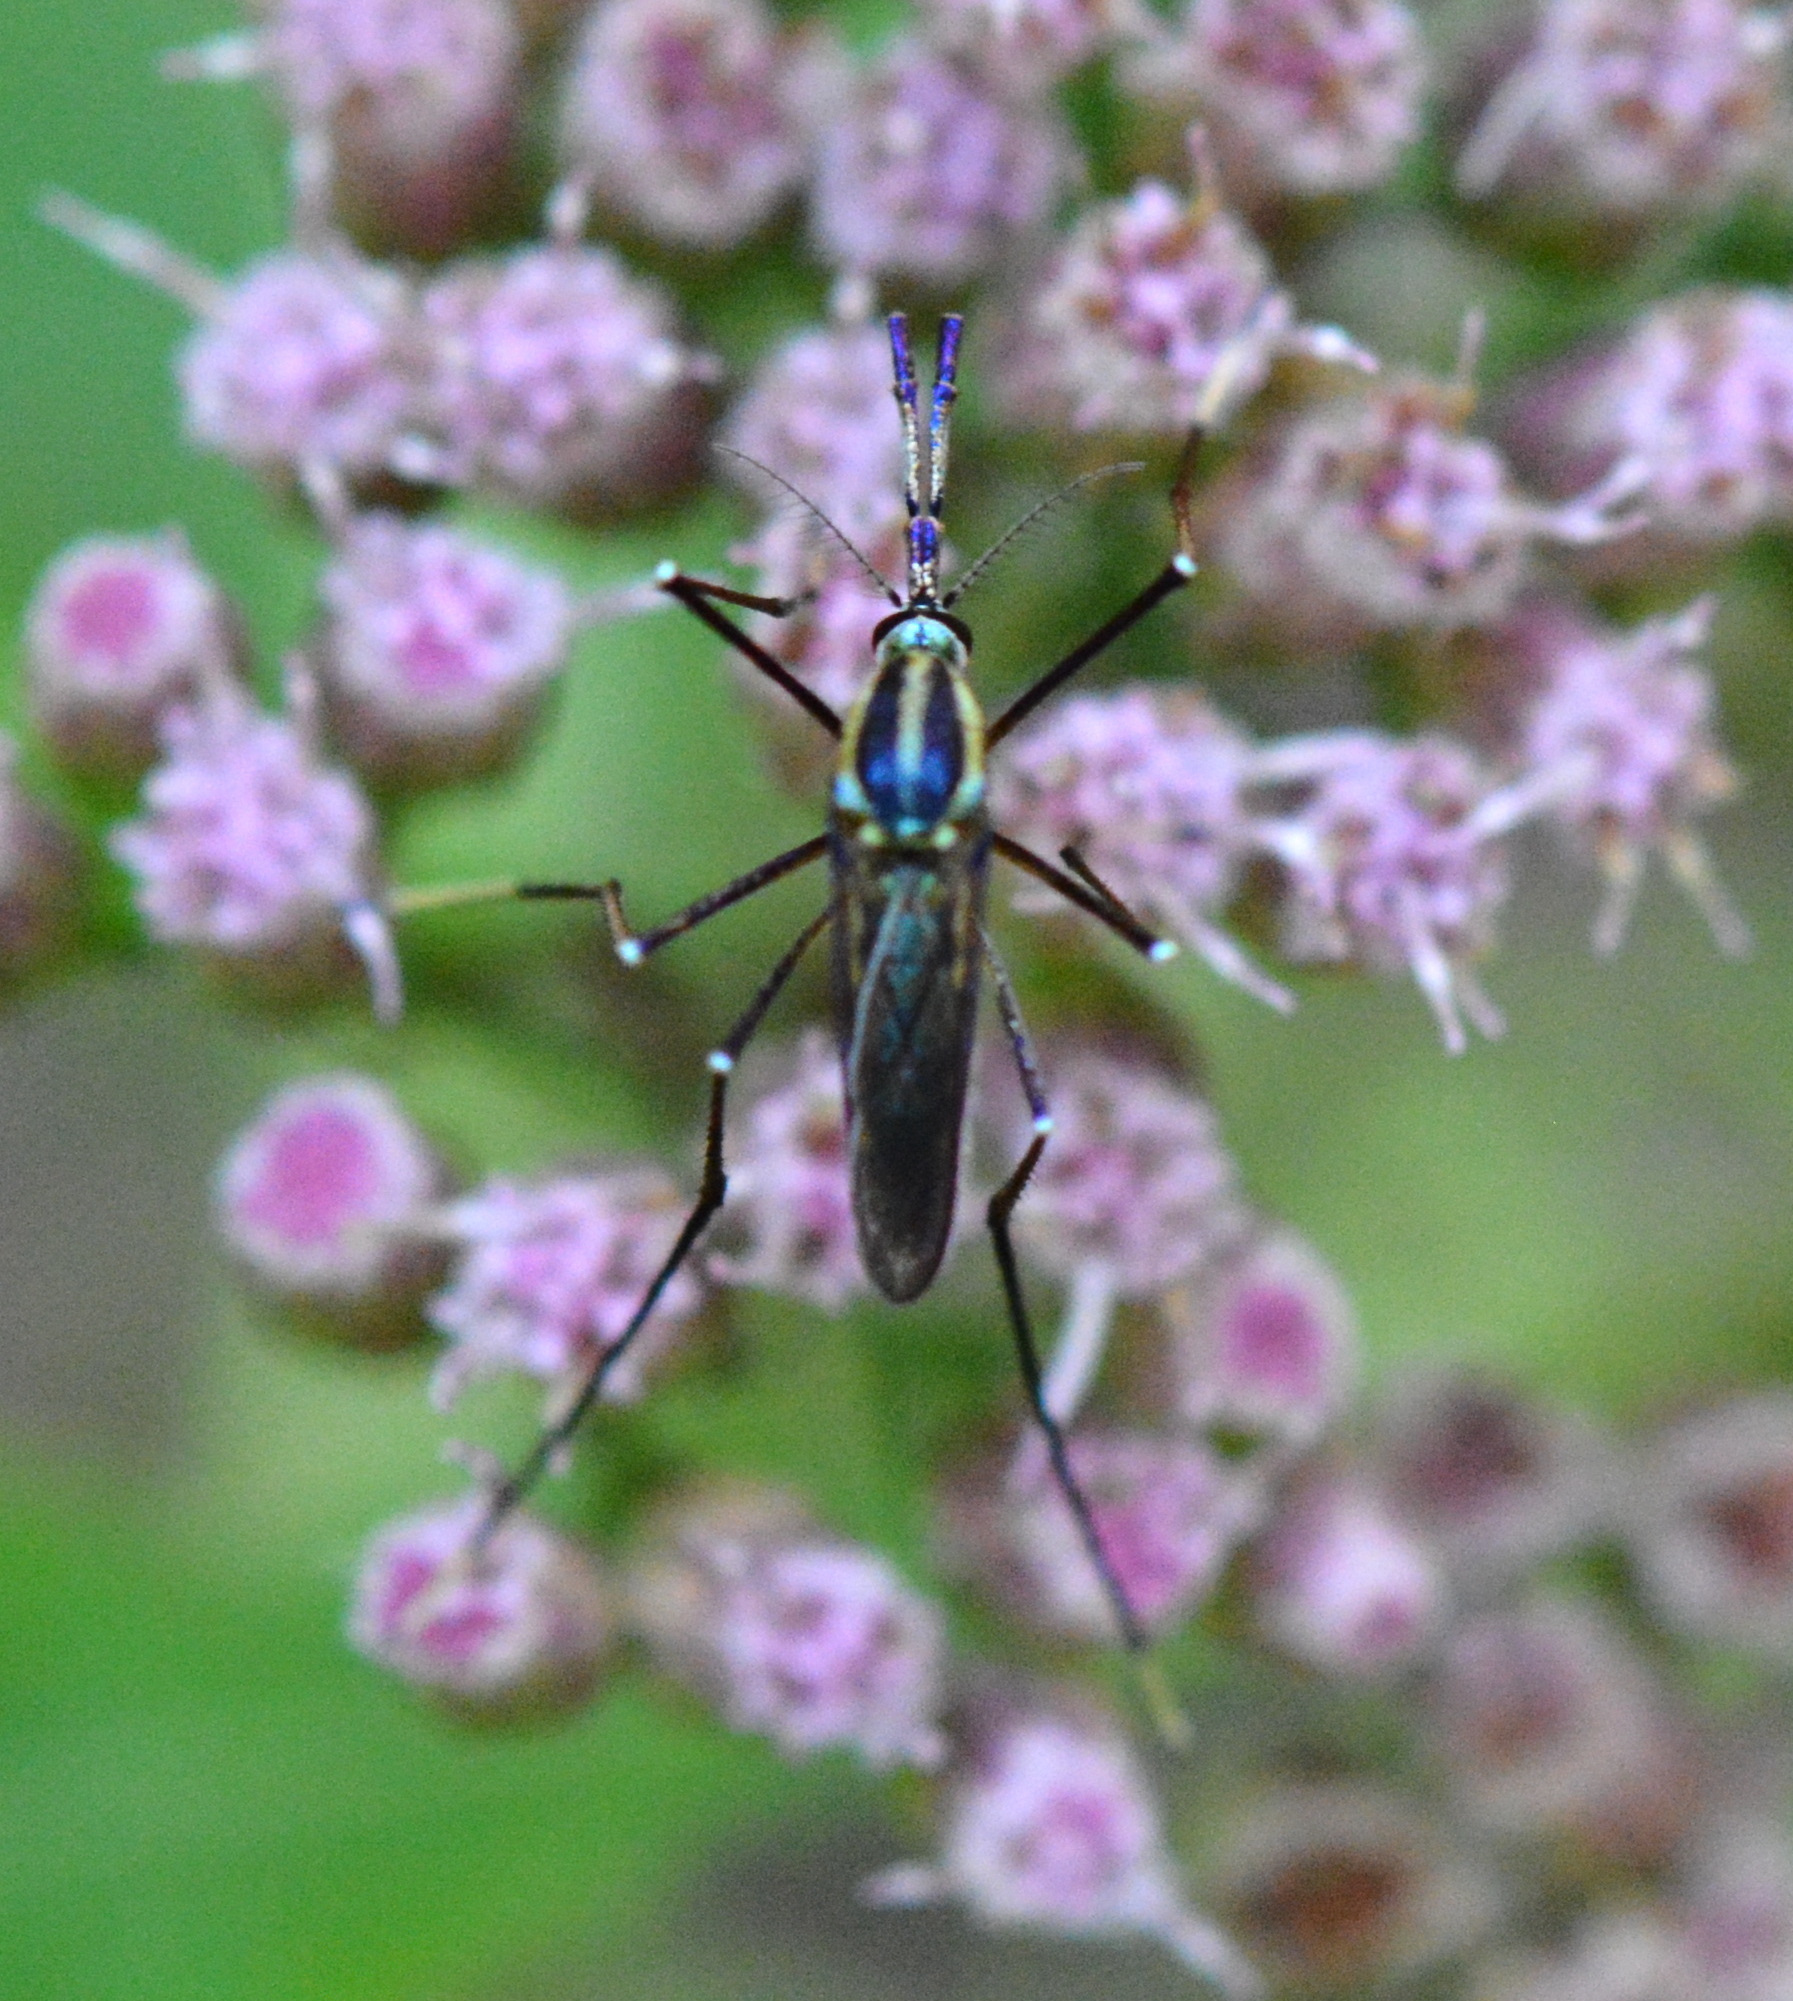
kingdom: Animalia
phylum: Arthropoda
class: Insecta
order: Diptera
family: Culicidae
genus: Toxorhynchites
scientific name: Toxorhynchites rutilus
